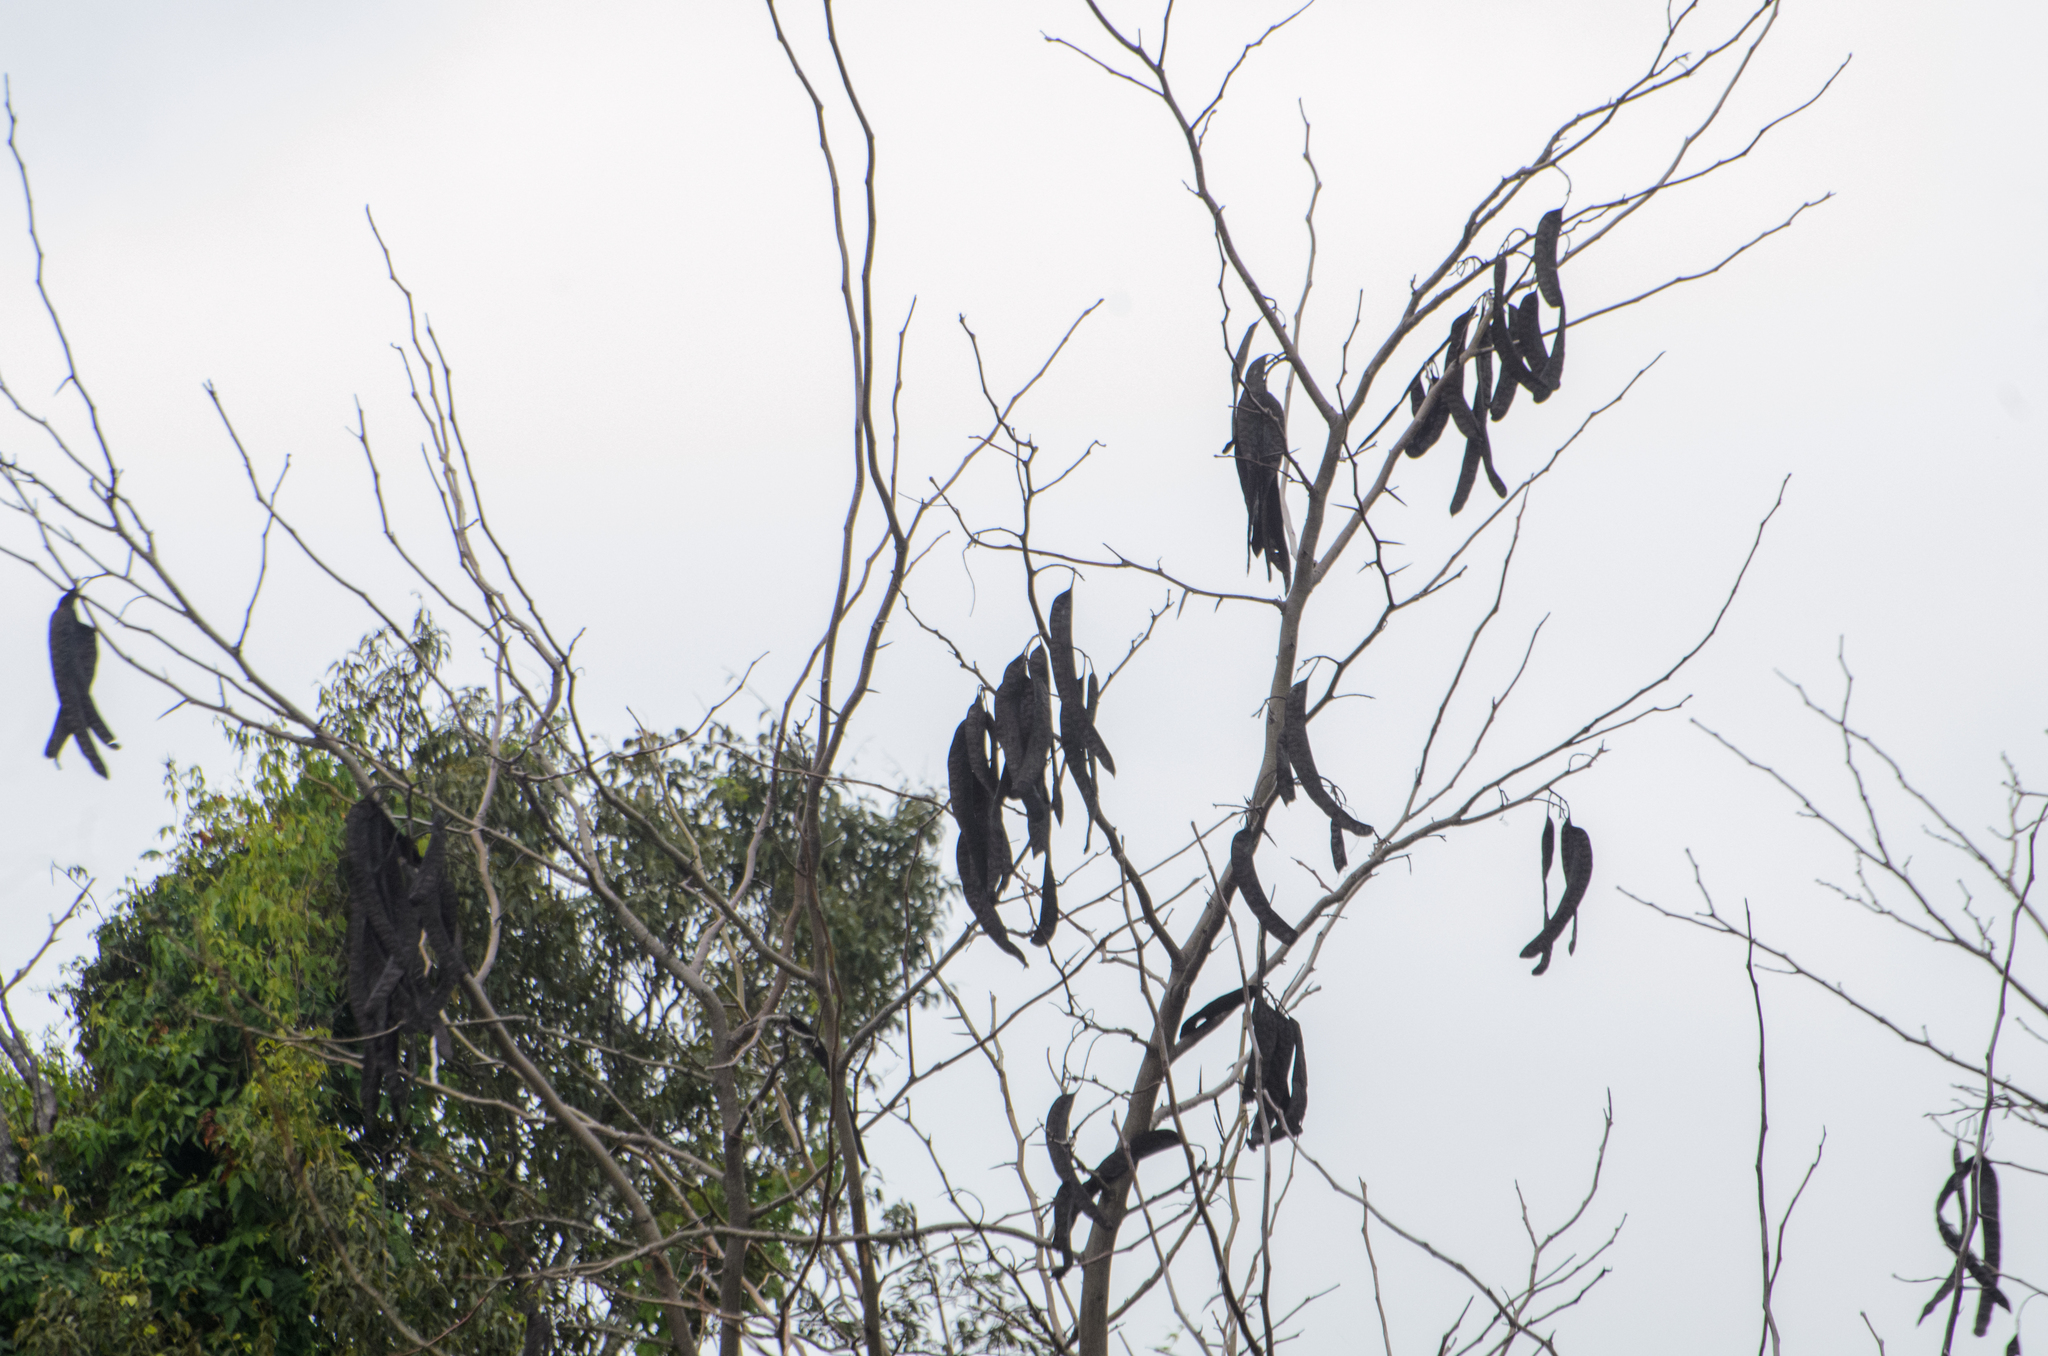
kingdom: Plantae
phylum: Tracheophyta
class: Magnoliopsida
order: Fabales
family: Fabaceae
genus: Gleditsia
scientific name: Gleditsia triacanthos
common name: Common honeylocust
